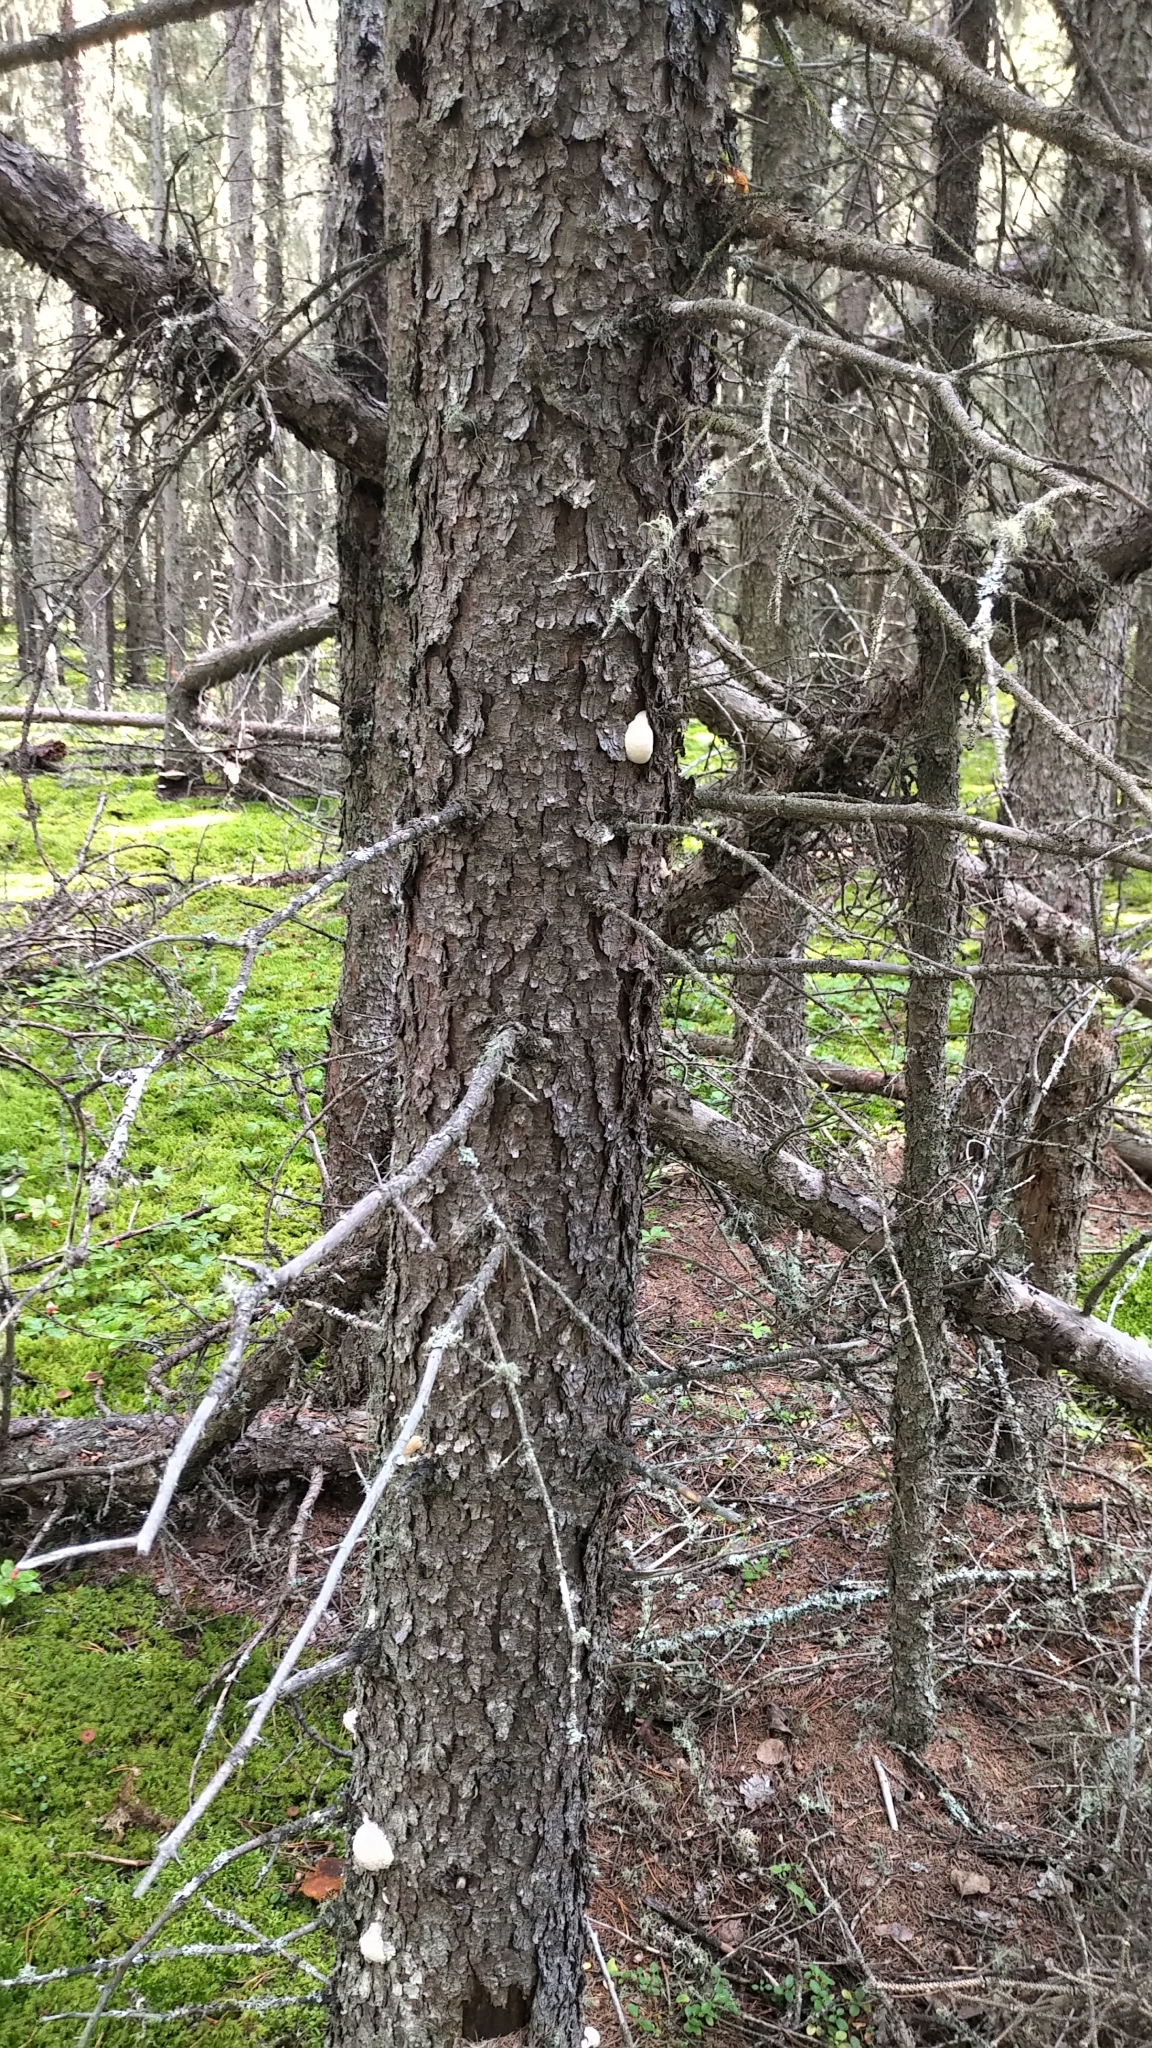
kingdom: Protozoa
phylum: Mycetozoa
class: Myxomycetes
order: Cribrariales
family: Tubiferaceae
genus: Reticularia
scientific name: Reticularia lycoperdon
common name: False puffball
